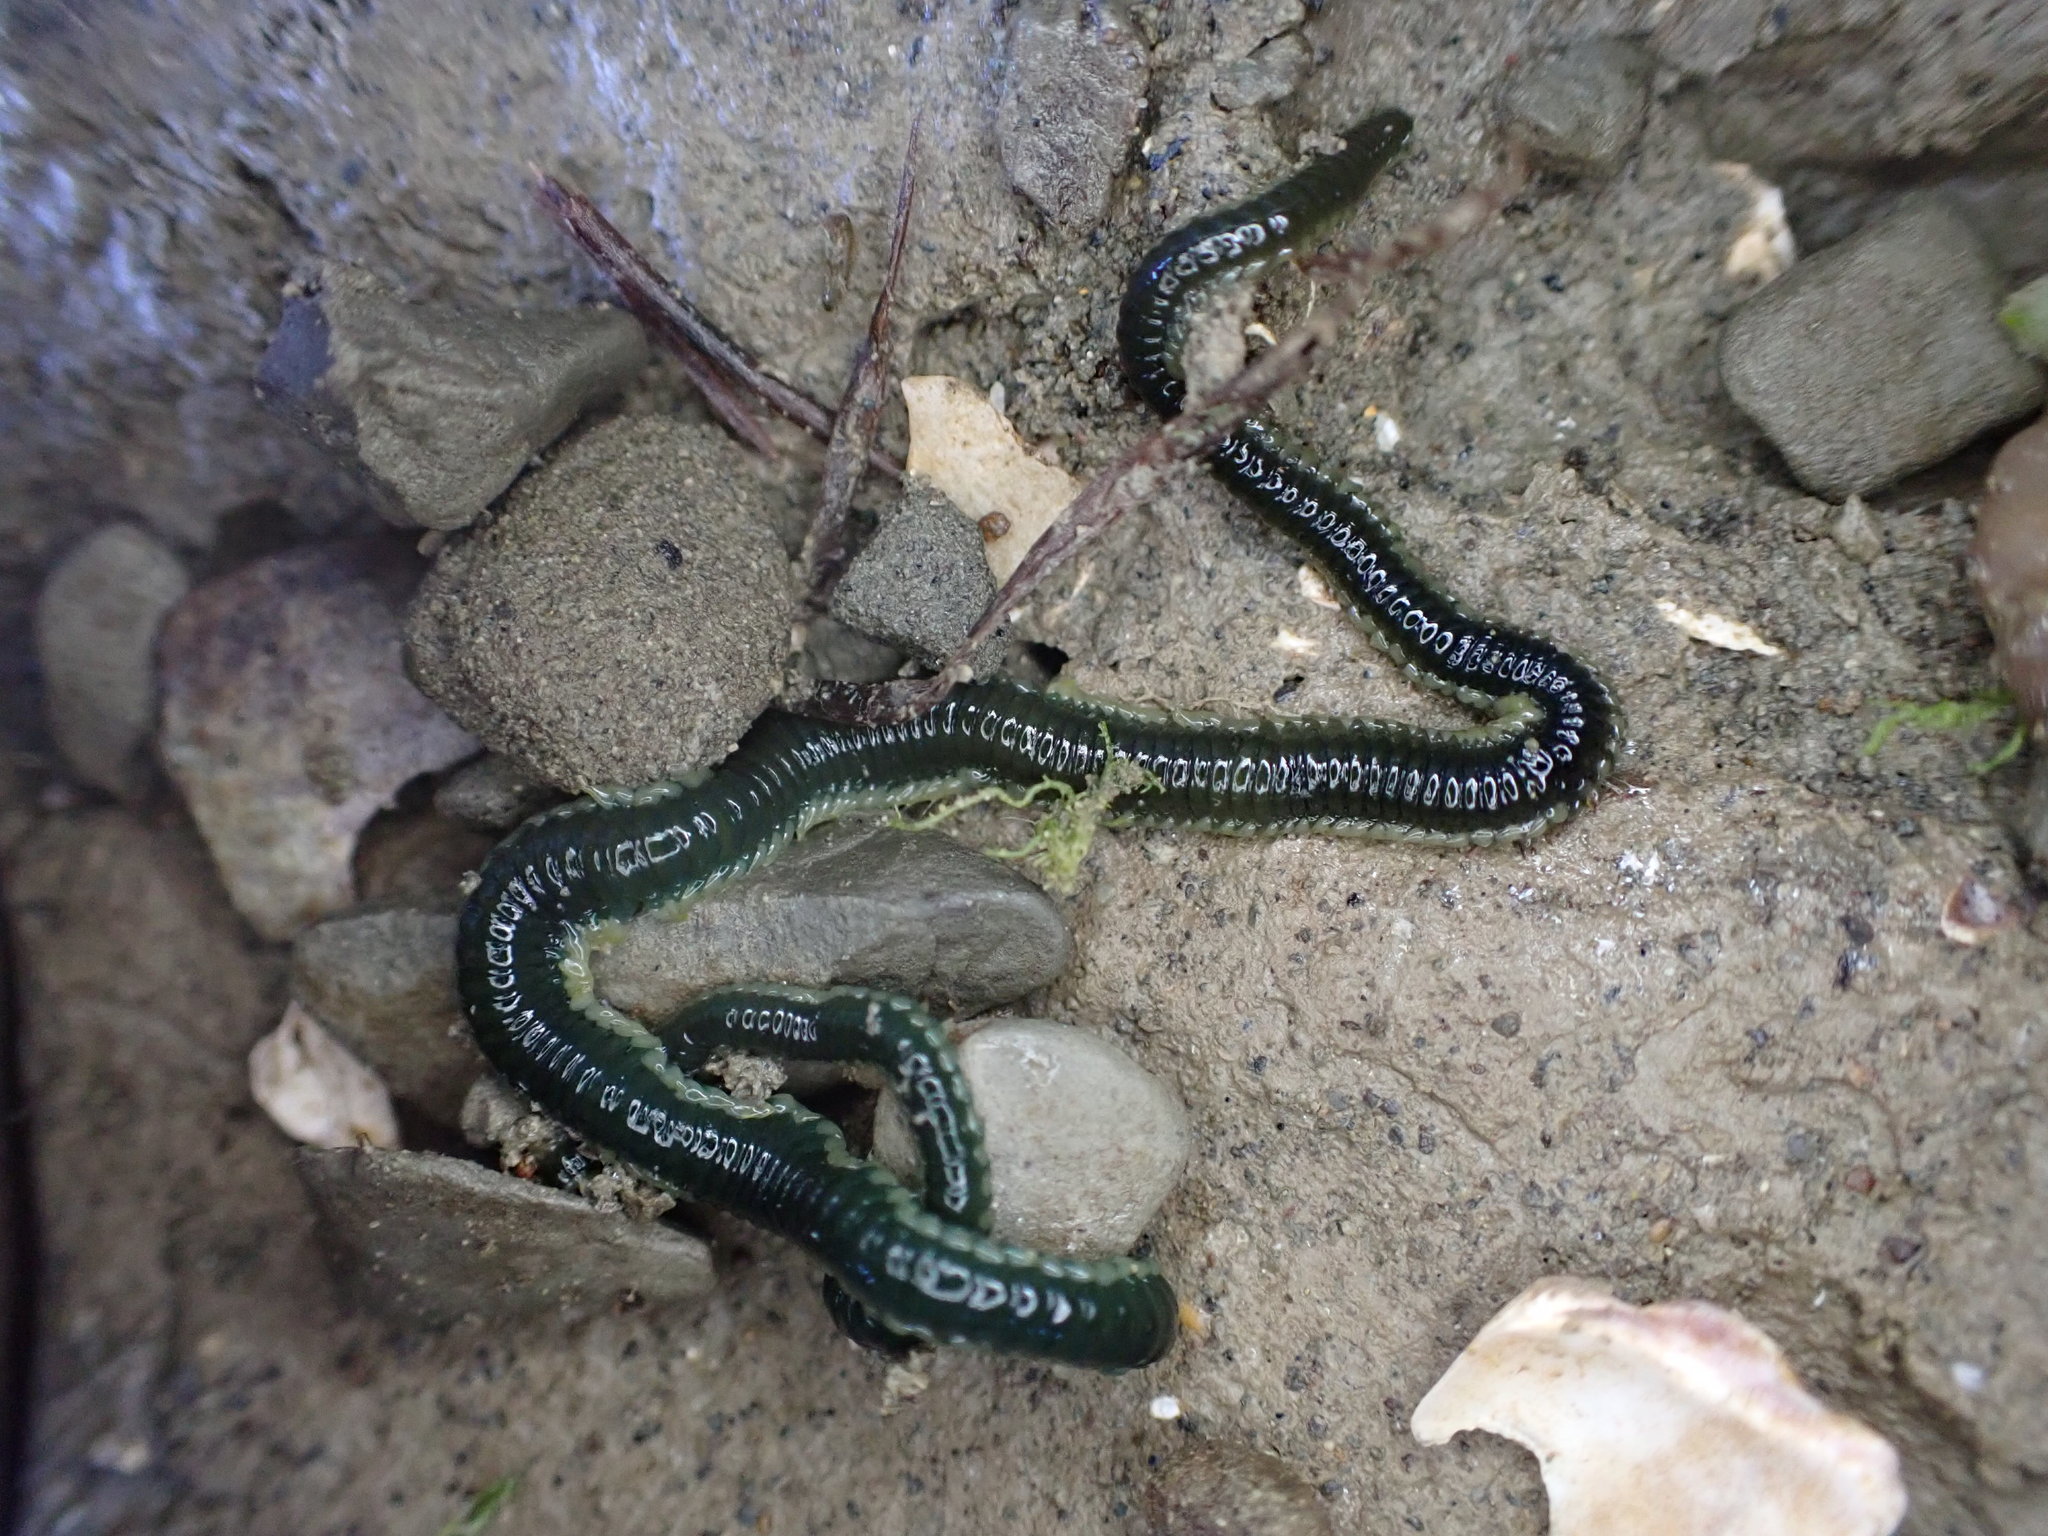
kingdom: Animalia
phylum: Annelida
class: Polychaeta
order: Phyllodocida
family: Phyllodocidae
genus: Eulalia
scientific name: Eulalia microphylla
